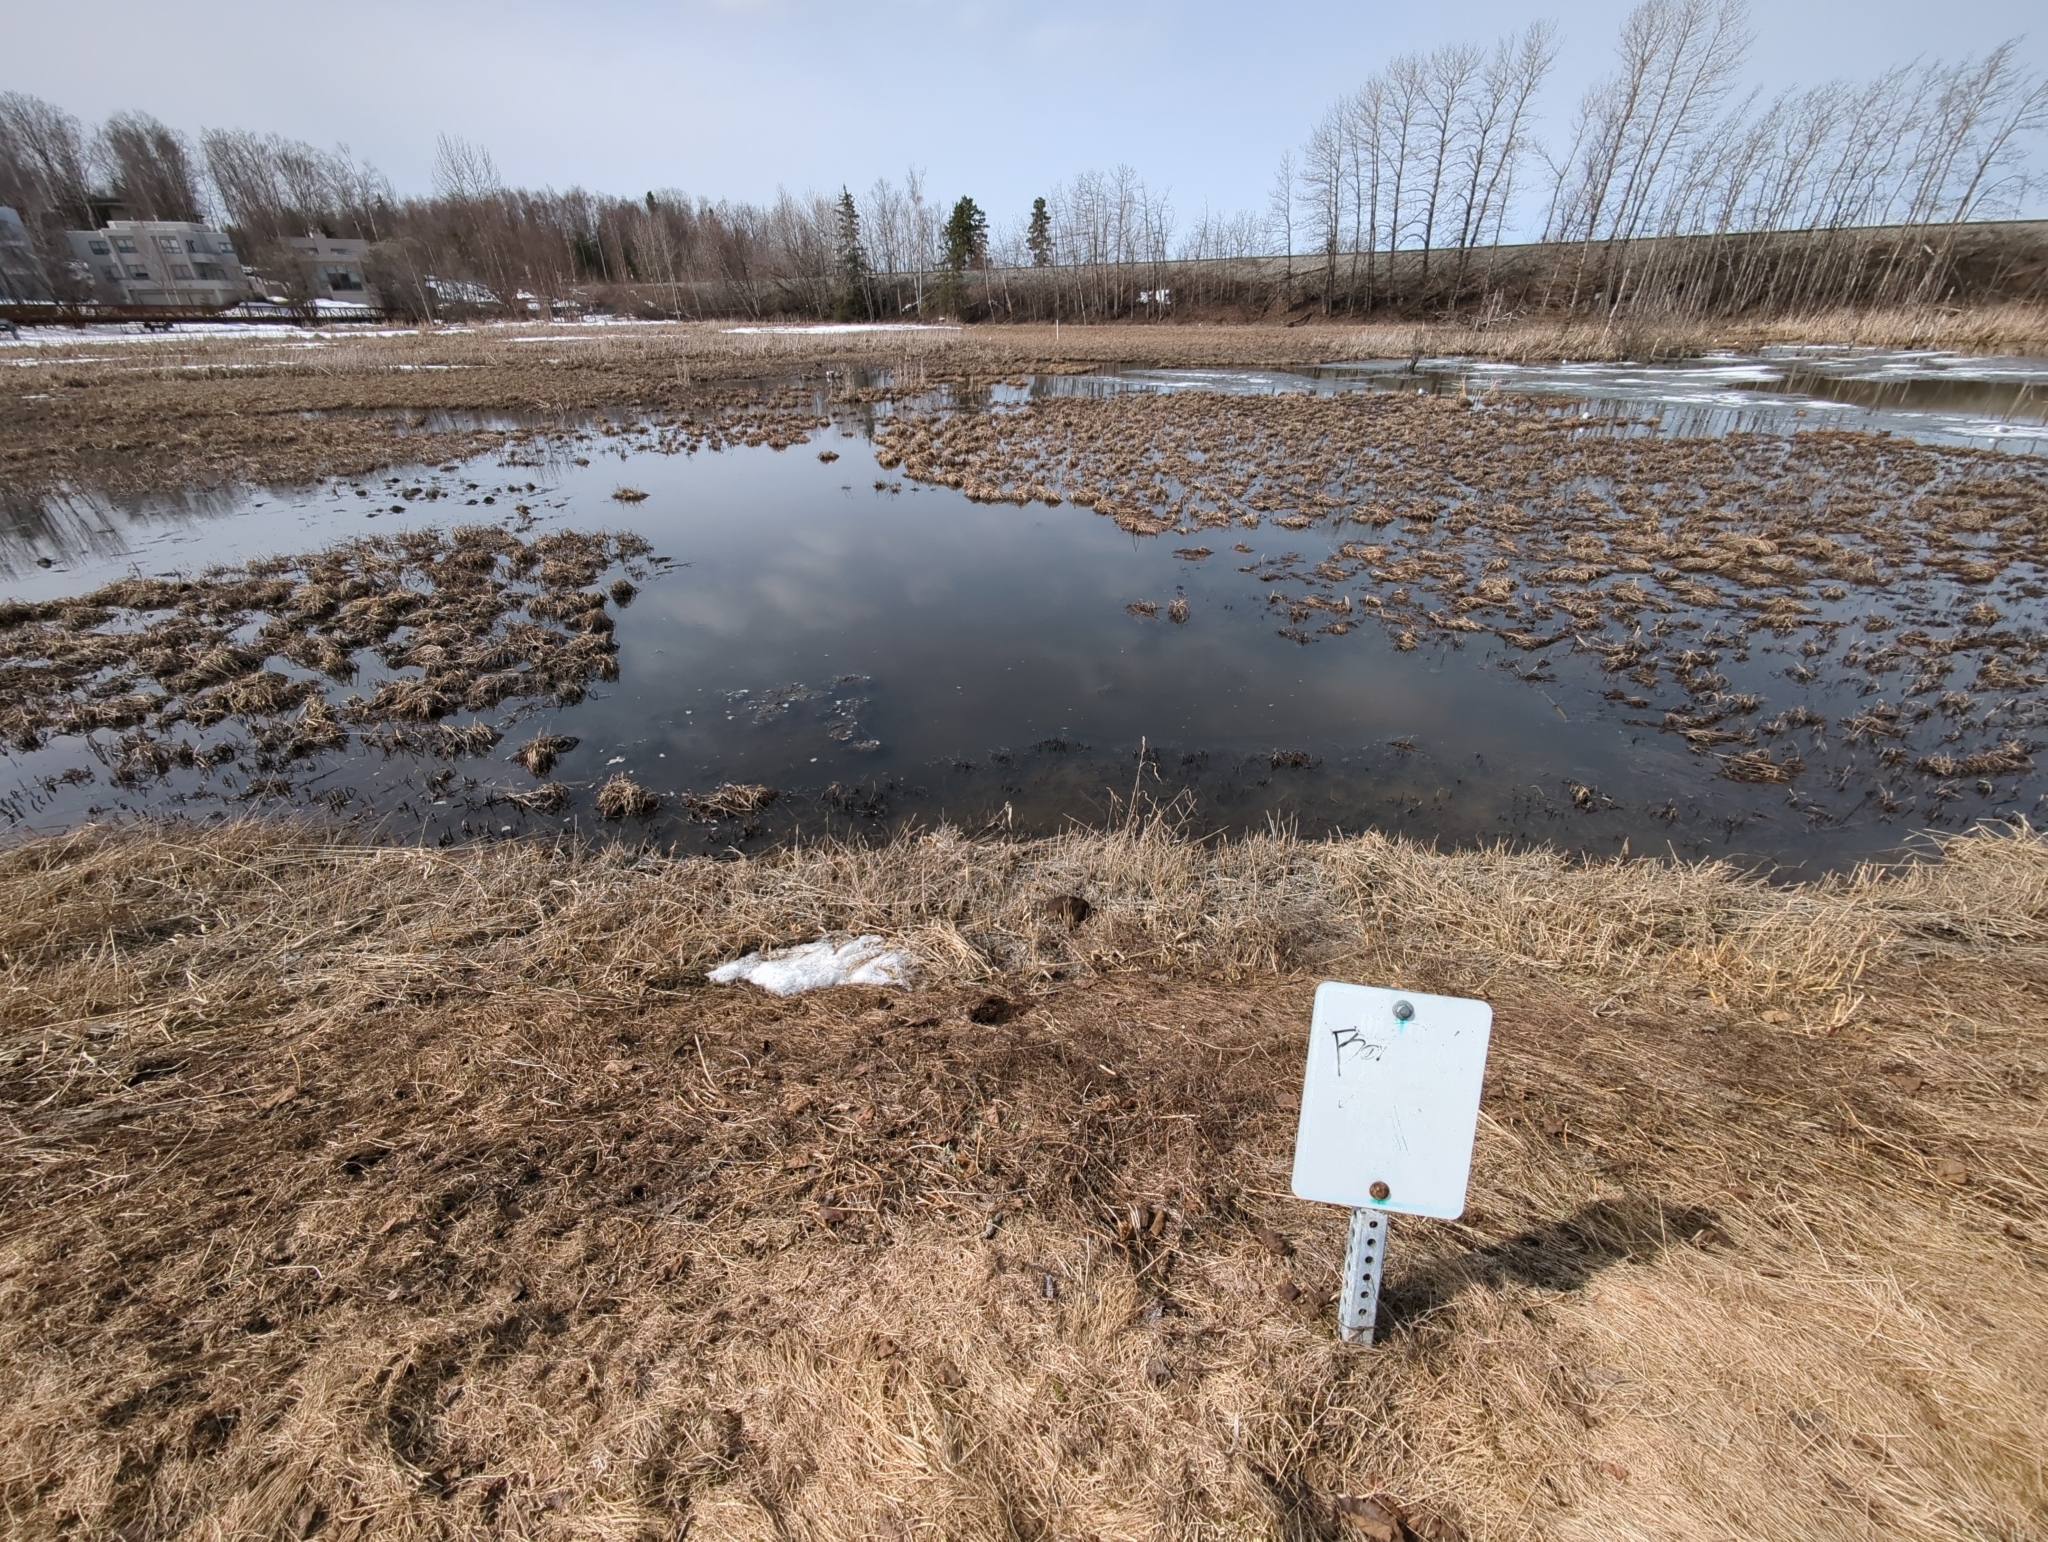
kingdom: Animalia
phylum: Chordata
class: Mammalia
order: Rodentia
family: Cricetidae
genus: Ondatra
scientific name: Ondatra zibethicus
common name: Muskrat
